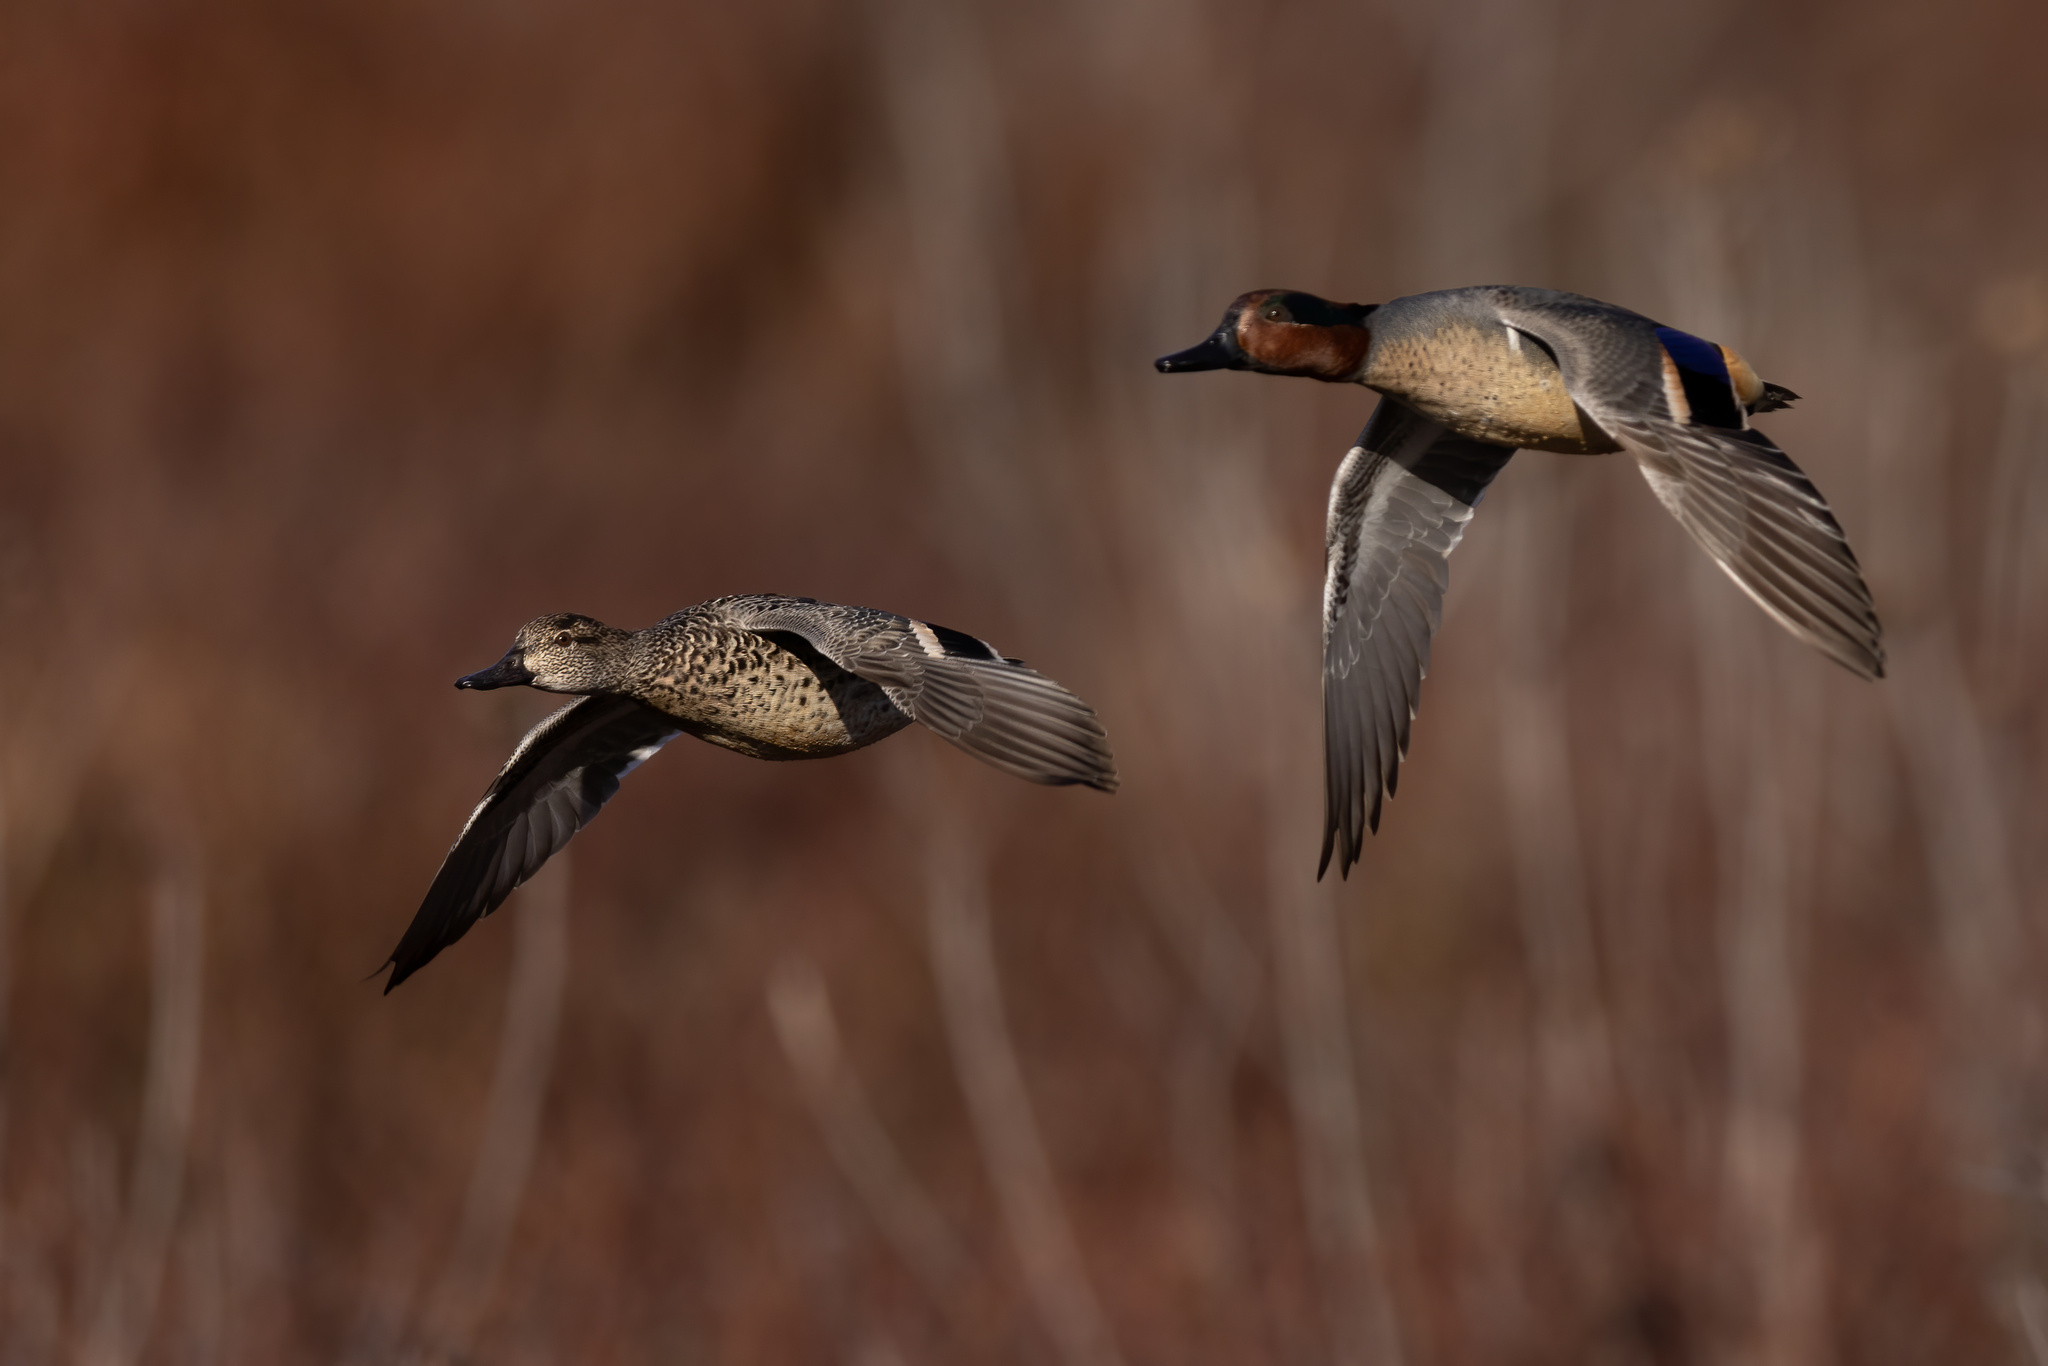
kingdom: Animalia
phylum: Chordata
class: Aves
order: Anseriformes
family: Anatidae
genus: Anas
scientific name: Anas crecca
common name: Eurasian teal
